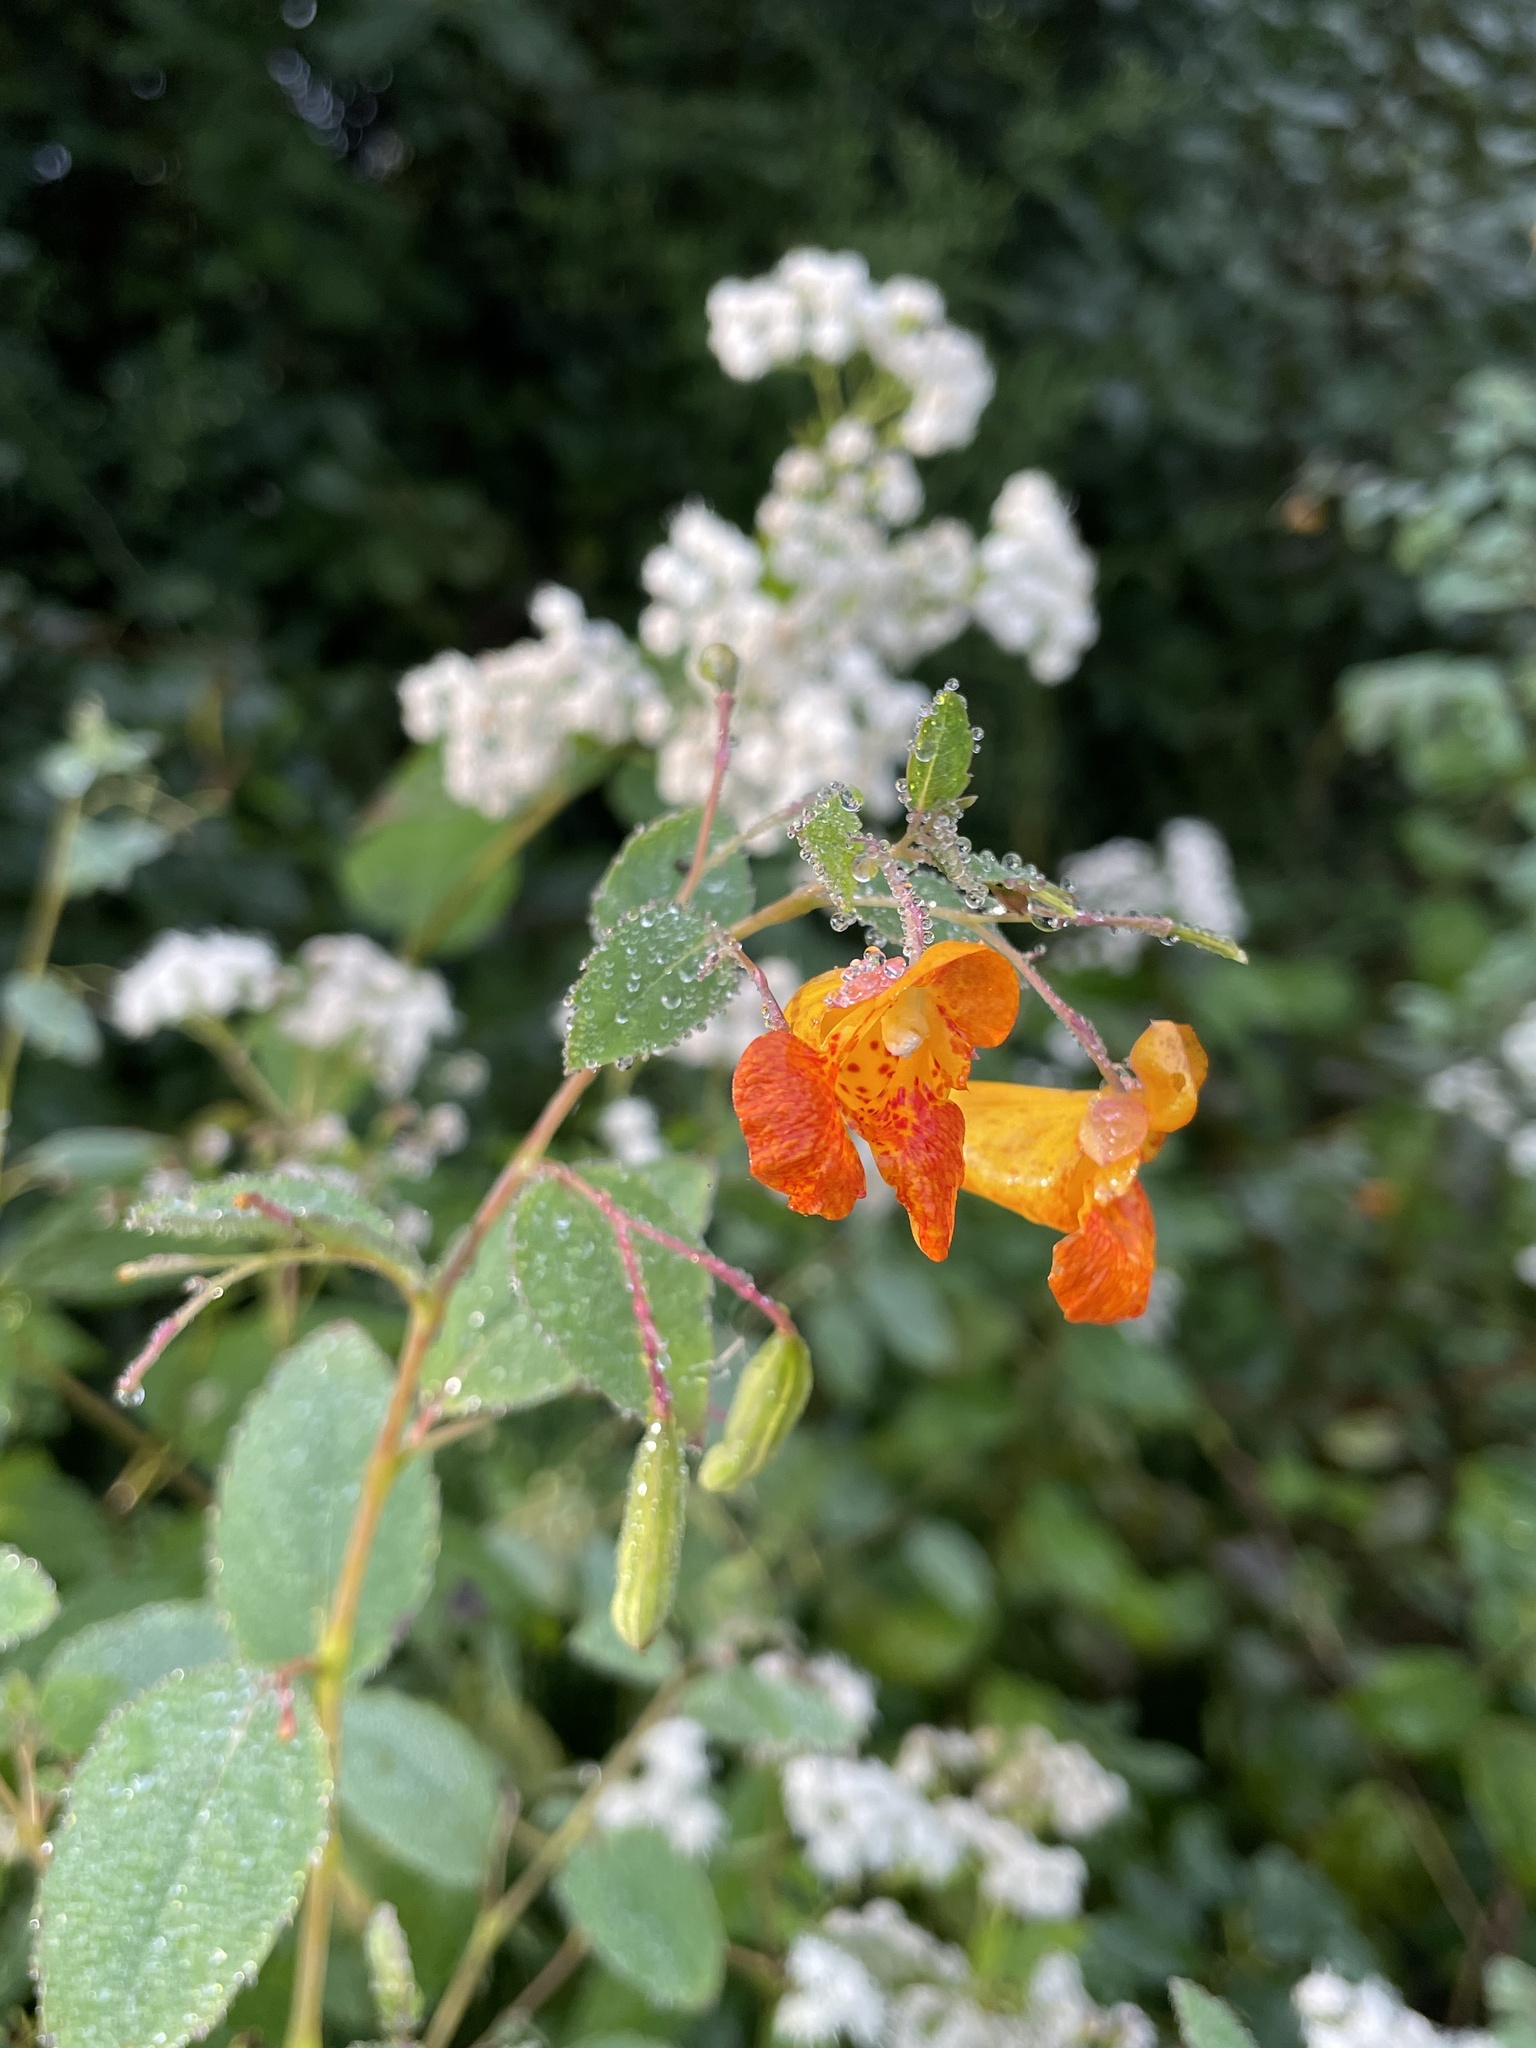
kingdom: Plantae
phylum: Tracheophyta
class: Magnoliopsida
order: Ericales
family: Balsaminaceae
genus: Impatiens
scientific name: Impatiens capensis
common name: Orange balsam
